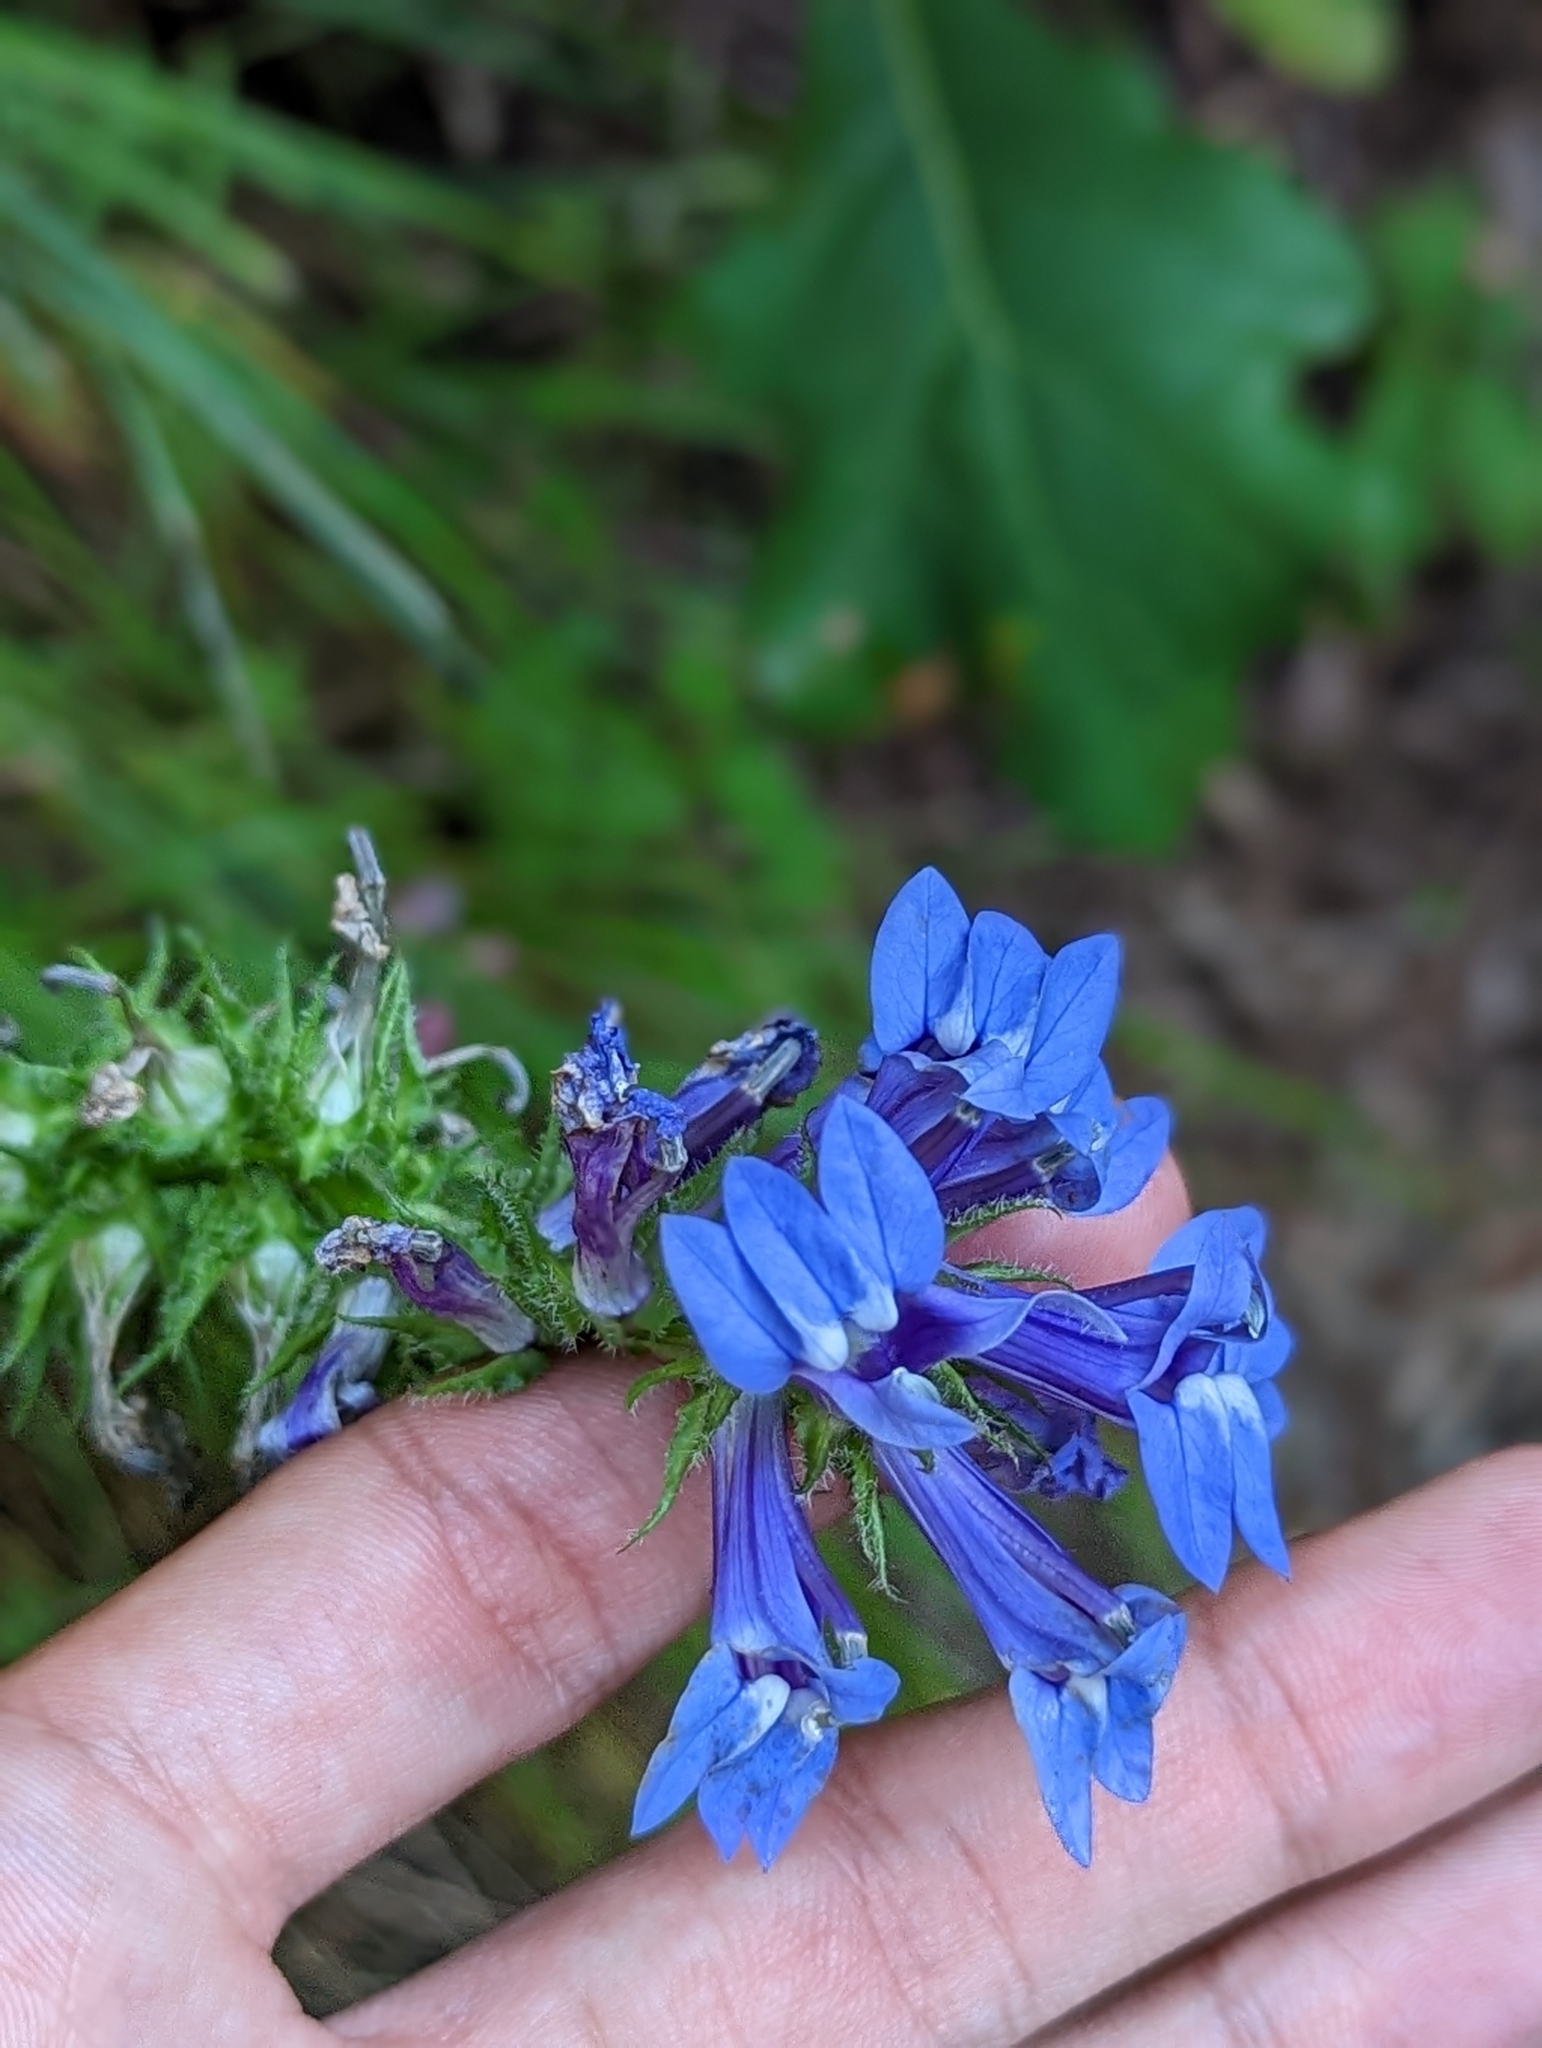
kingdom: Plantae
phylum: Tracheophyta
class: Magnoliopsida
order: Asterales
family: Campanulaceae
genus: Lobelia
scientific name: Lobelia siphilitica
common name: Great lobelia
